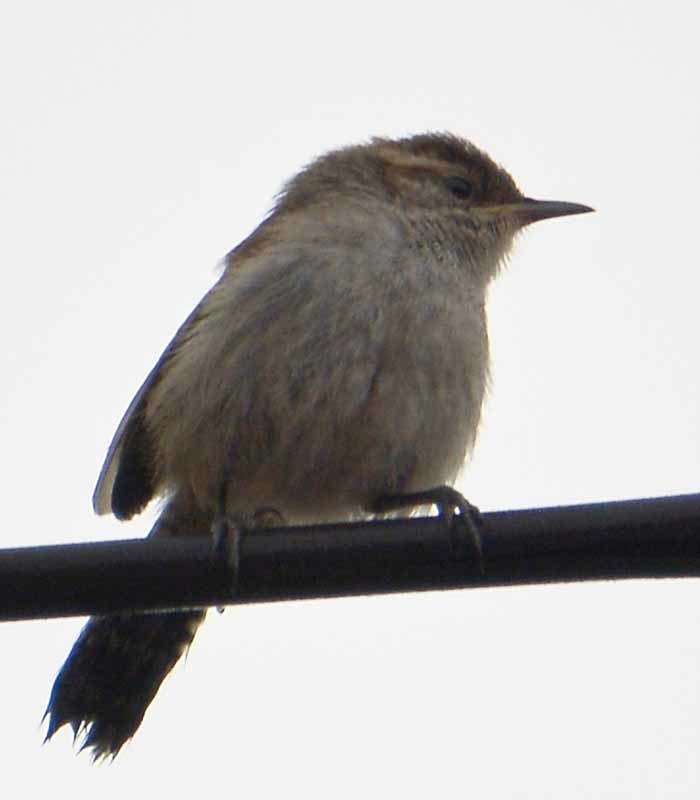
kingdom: Animalia
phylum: Chordata
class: Aves
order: Passeriformes
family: Troglodytidae
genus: Thryomanes
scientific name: Thryomanes bewickii
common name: Bewick's wren
